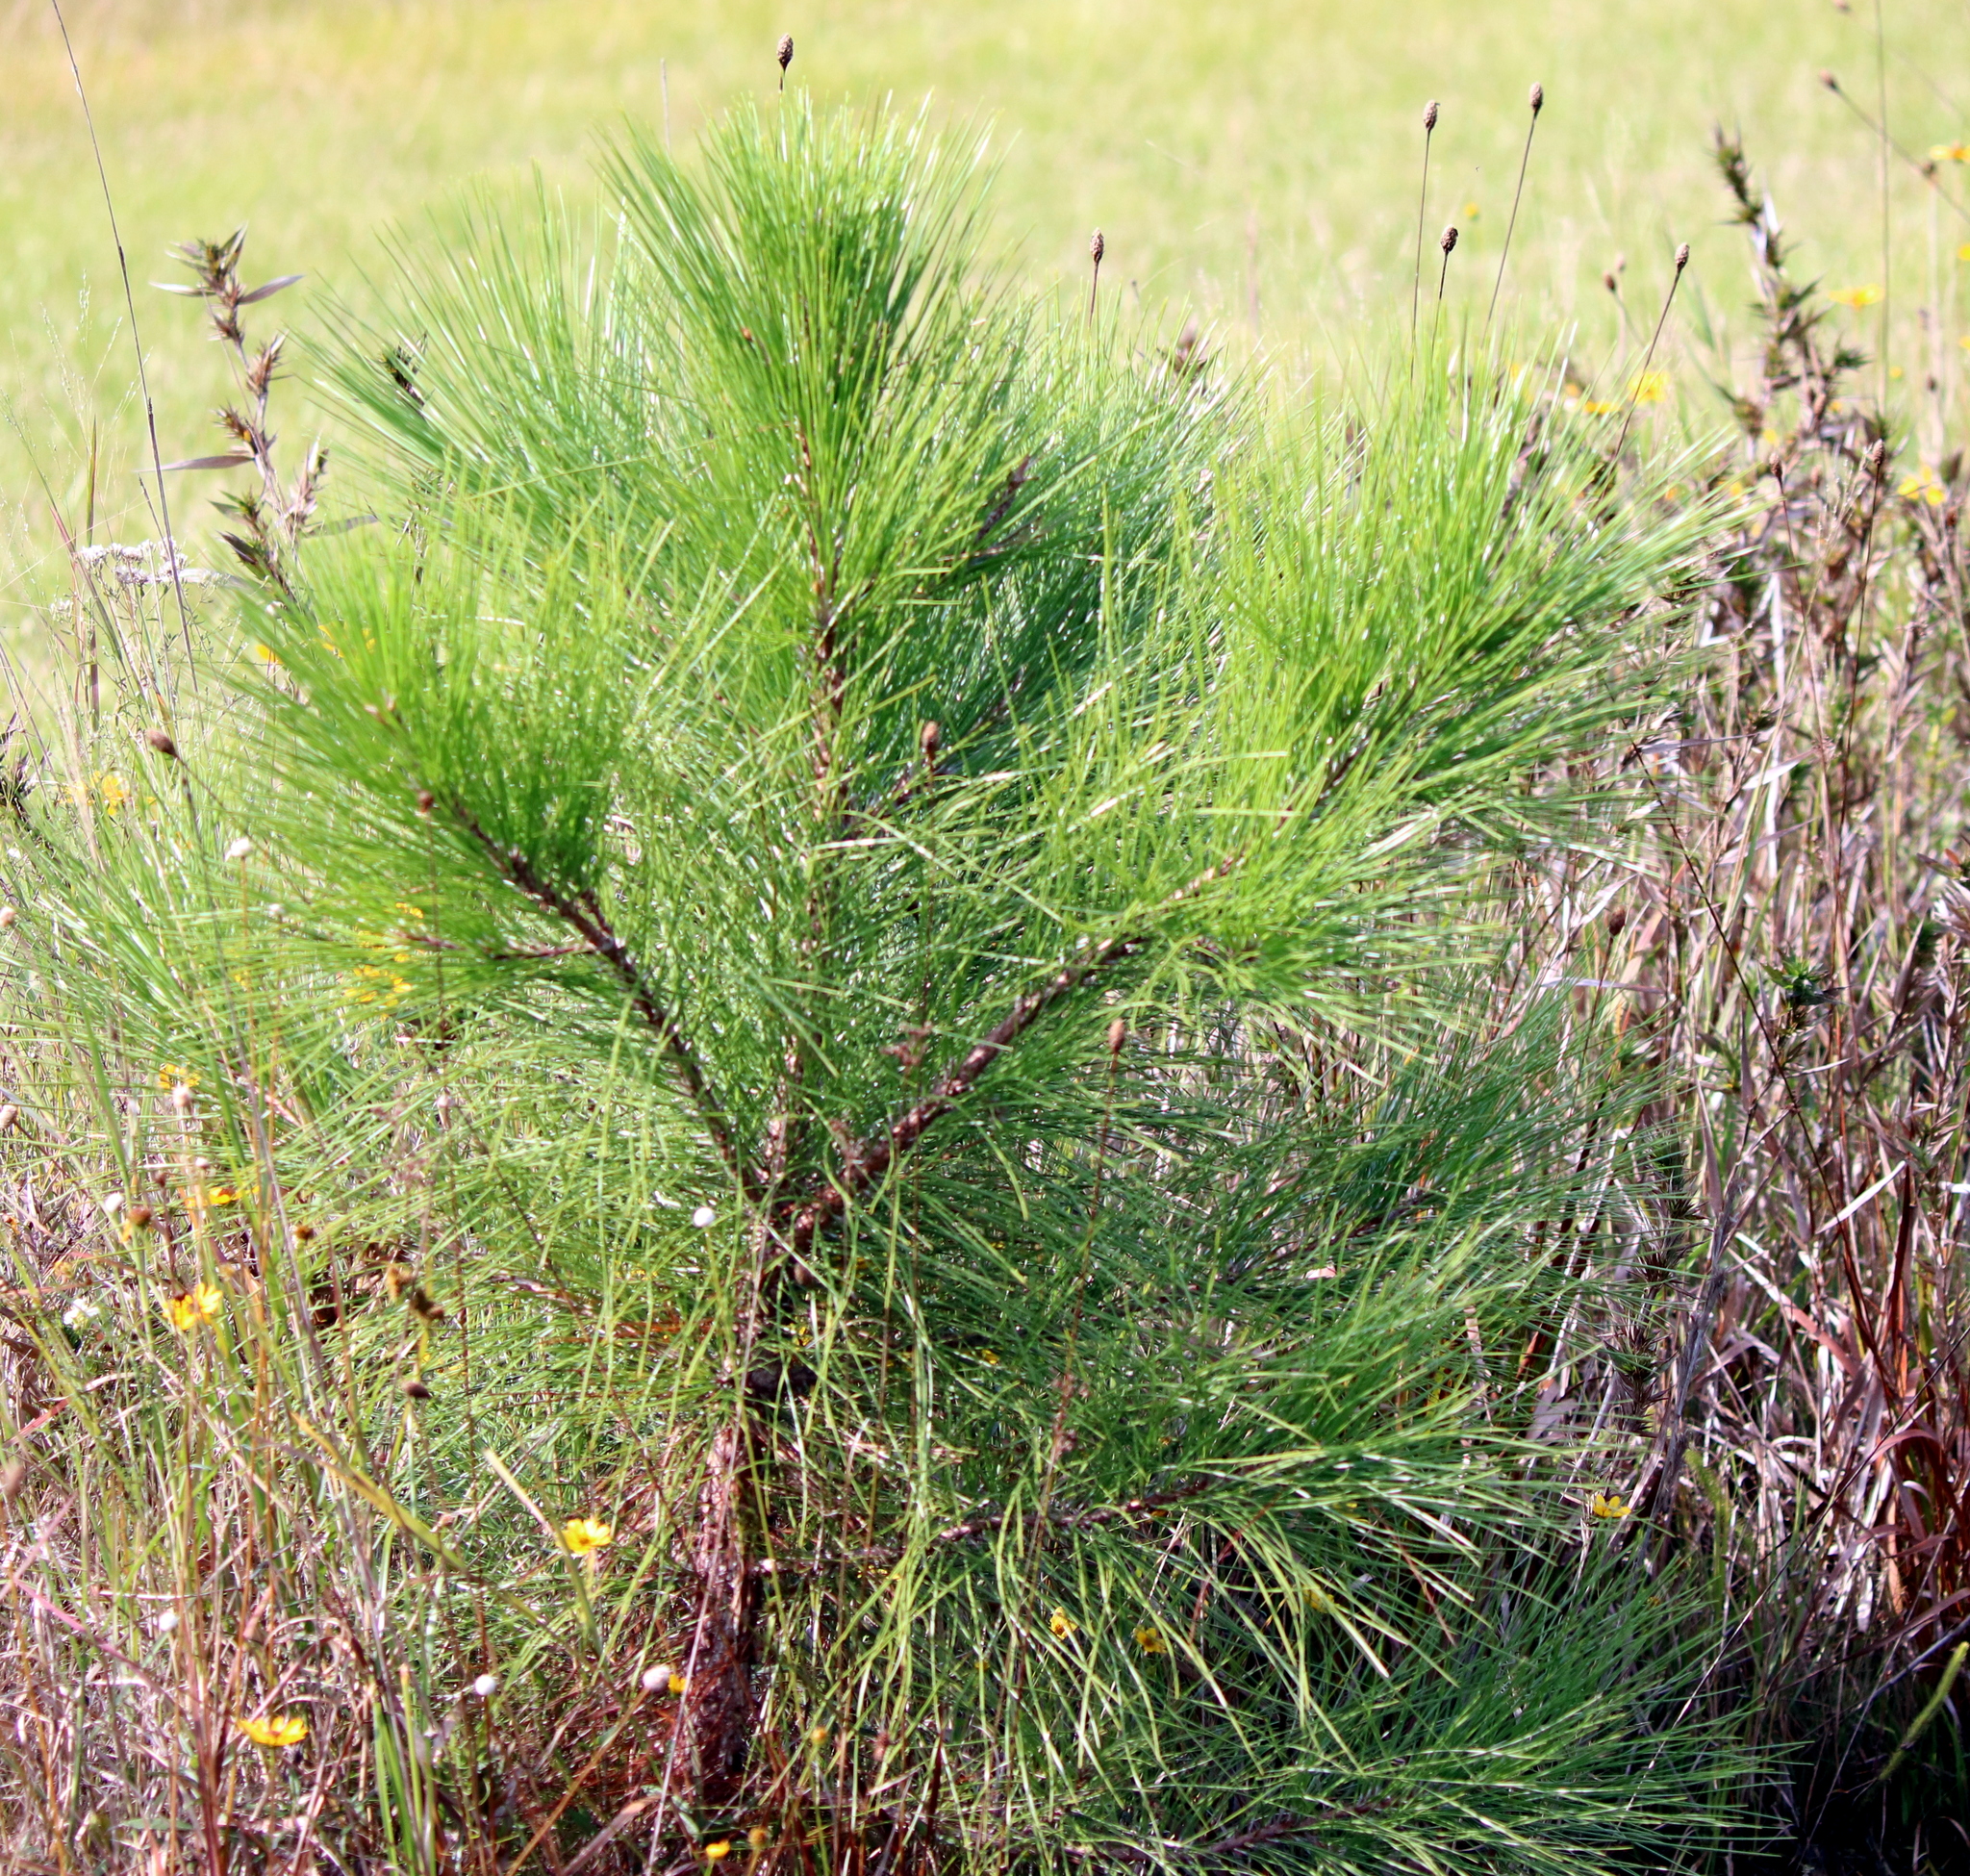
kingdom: Plantae
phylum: Tracheophyta
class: Pinopsida
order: Pinales
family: Pinaceae
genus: Pinus
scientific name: Pinus elliottii
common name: Slash pine
